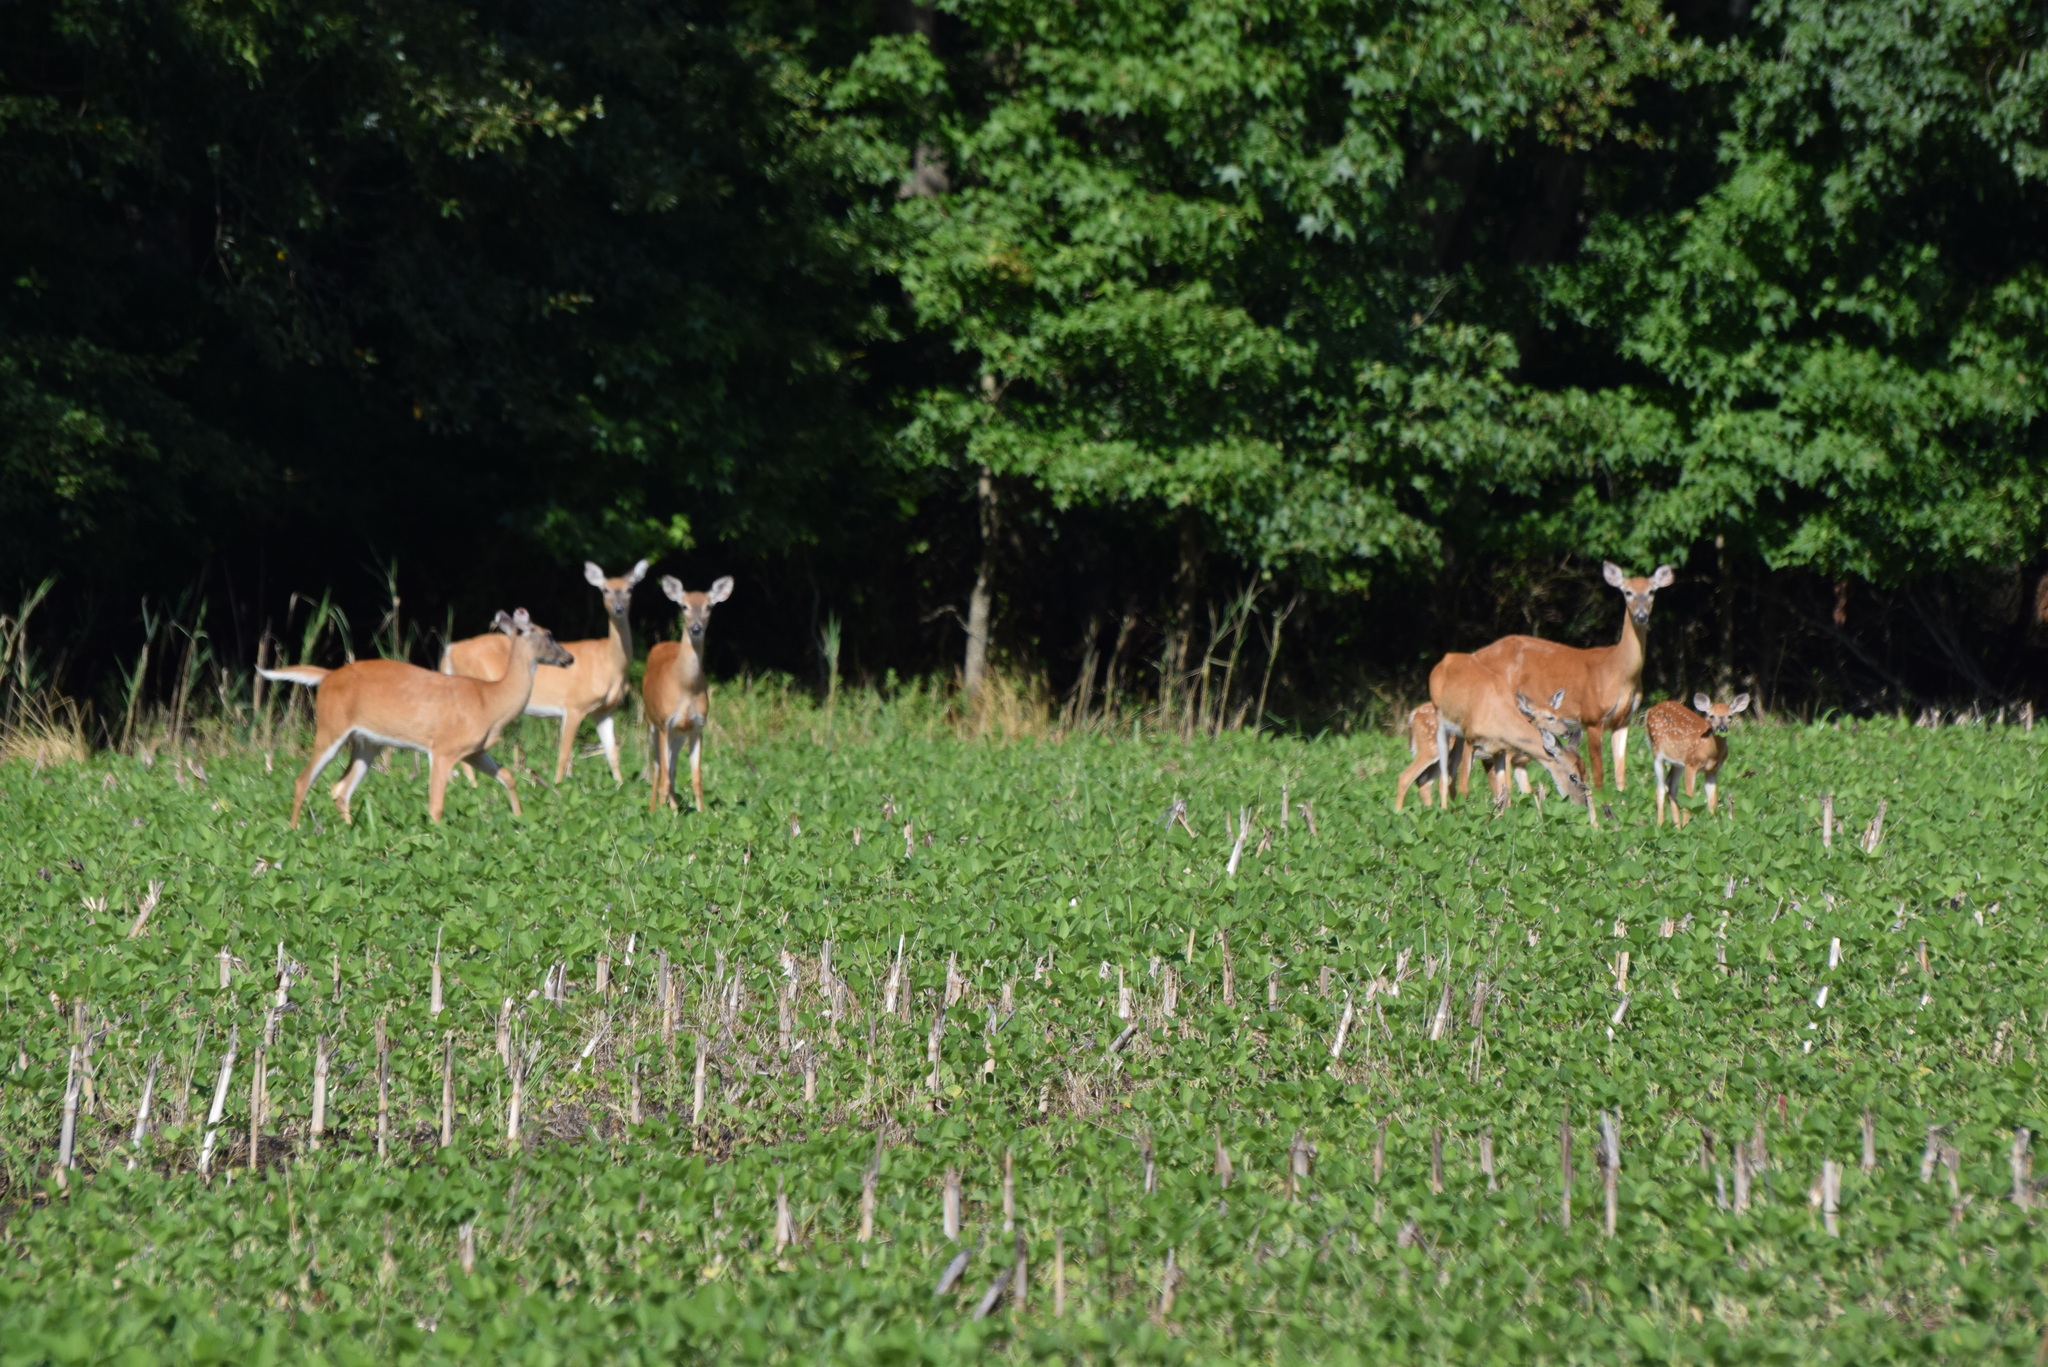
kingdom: Animalia
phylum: Chordata
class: Mammalia
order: Artiodactyla
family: Cervidae
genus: Odocoileus
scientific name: Odocoileus virginianus
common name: White-tailed deer
